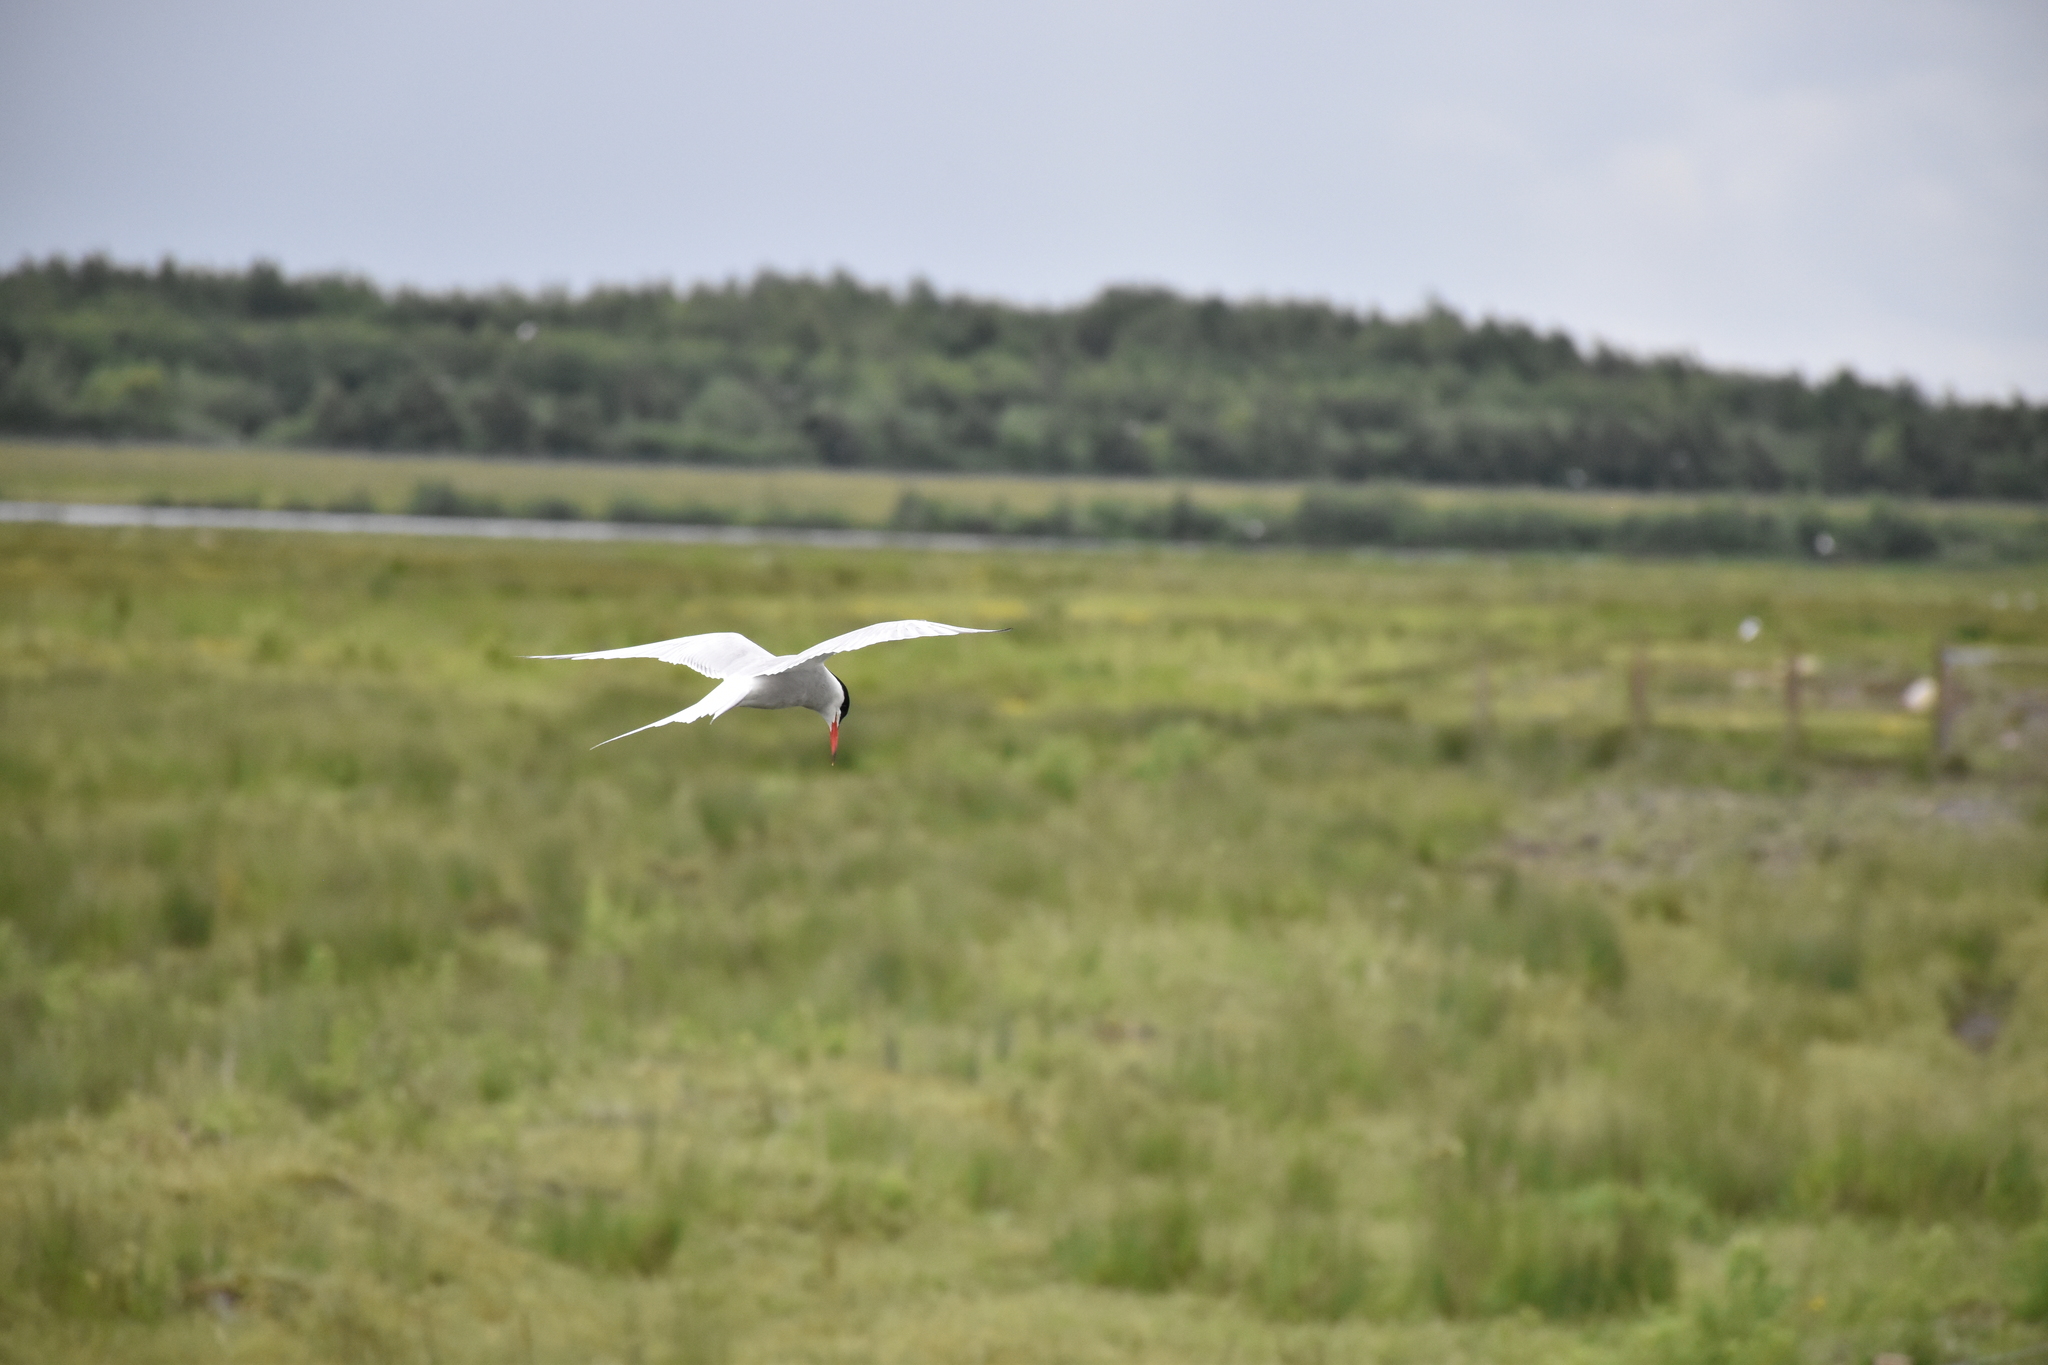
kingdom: Animalia
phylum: Chordata
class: Aves
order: Charadriiformes
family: Laridae
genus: Sterna
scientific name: Sterna hirundo
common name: Common tern
